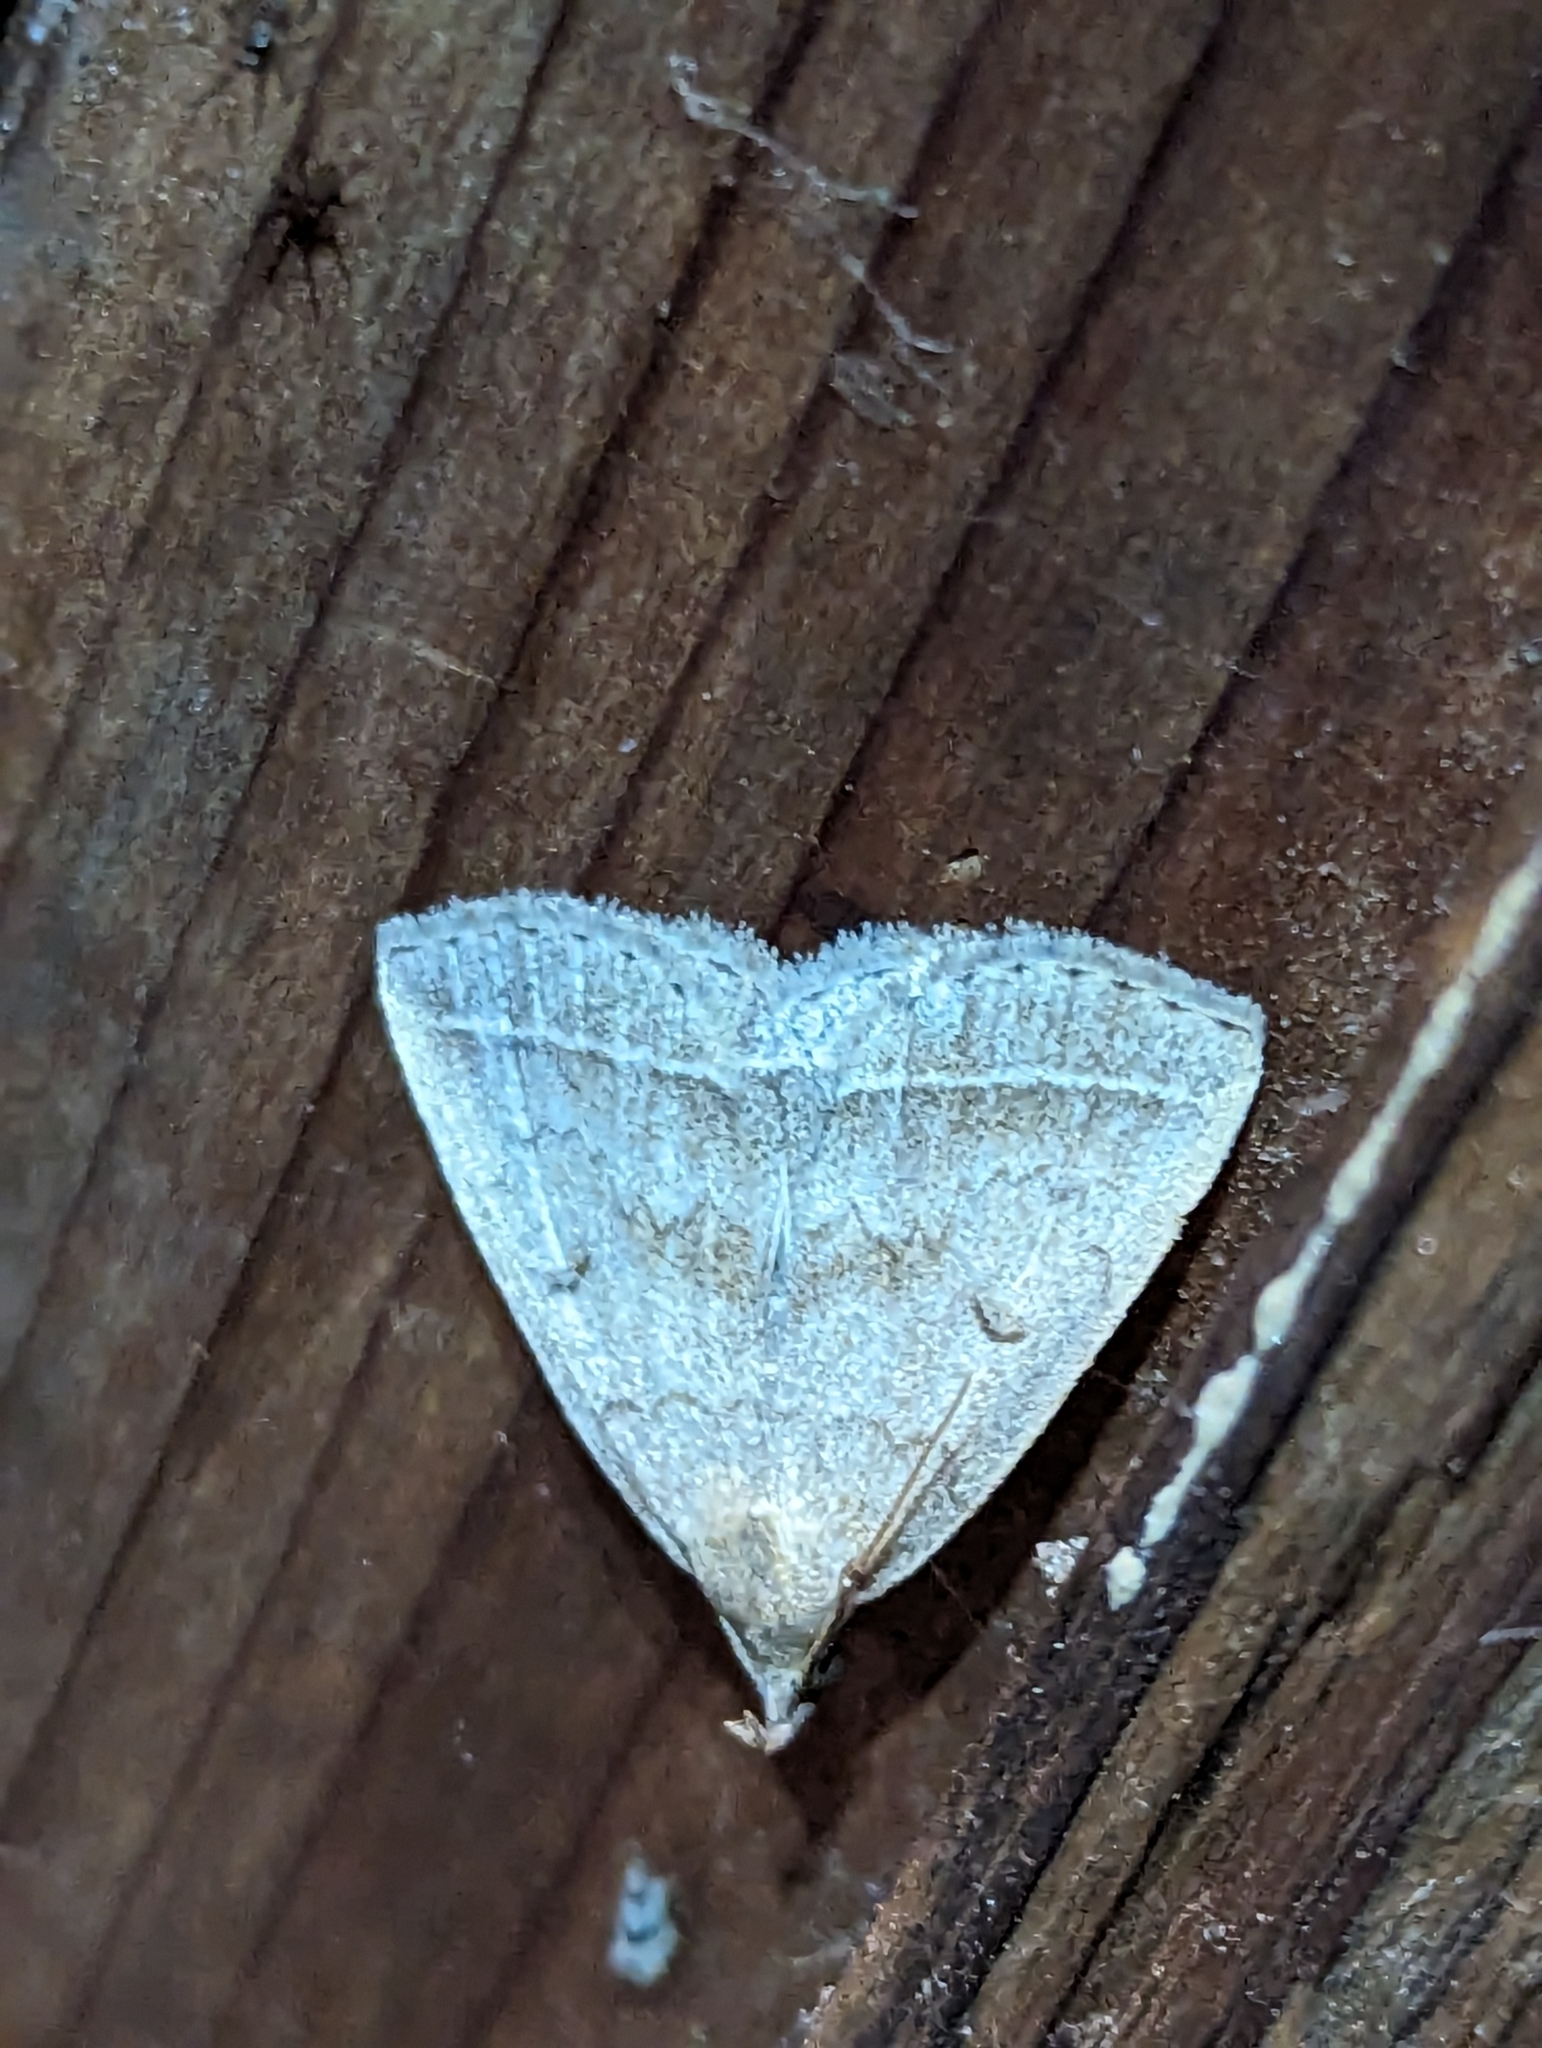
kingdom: Animalia
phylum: Arthropoda
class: Insecta
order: Lepidoptera
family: Erebidae
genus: Zanclognatha
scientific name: Zanclognatha jacchusalis
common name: Yellowish zanclognatha
